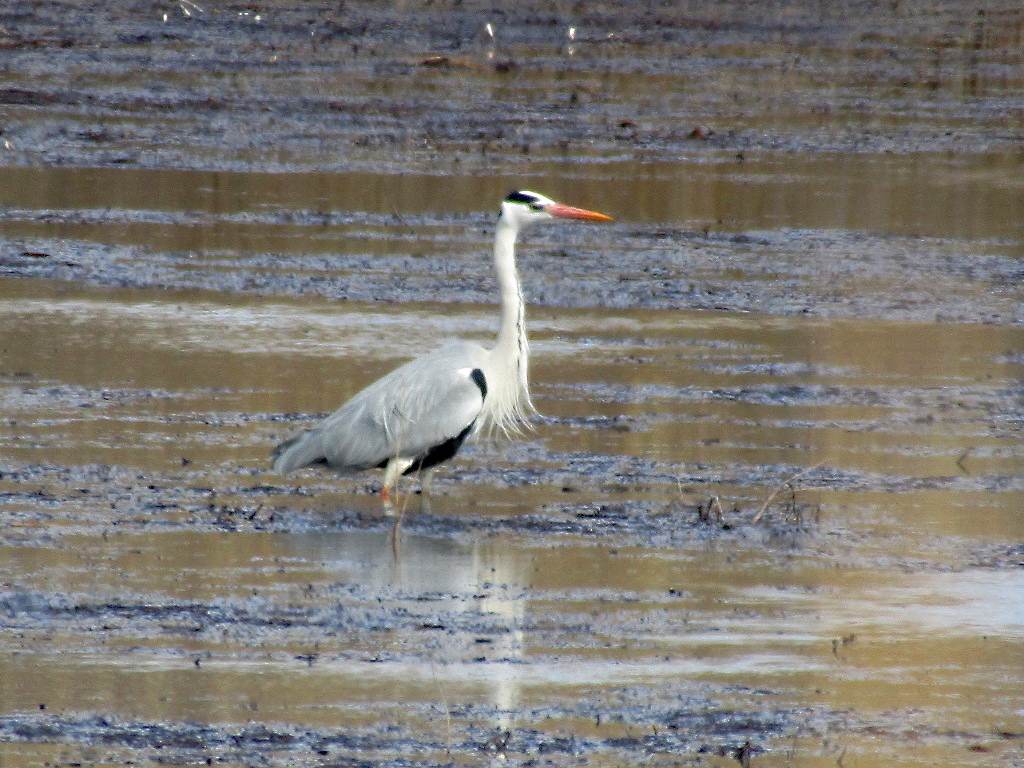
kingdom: Animalia
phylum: Chordata
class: Aves
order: Pelecaniformes
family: Ardeidae
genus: Ardea
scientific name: Ardea cinerea
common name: Grey heron
